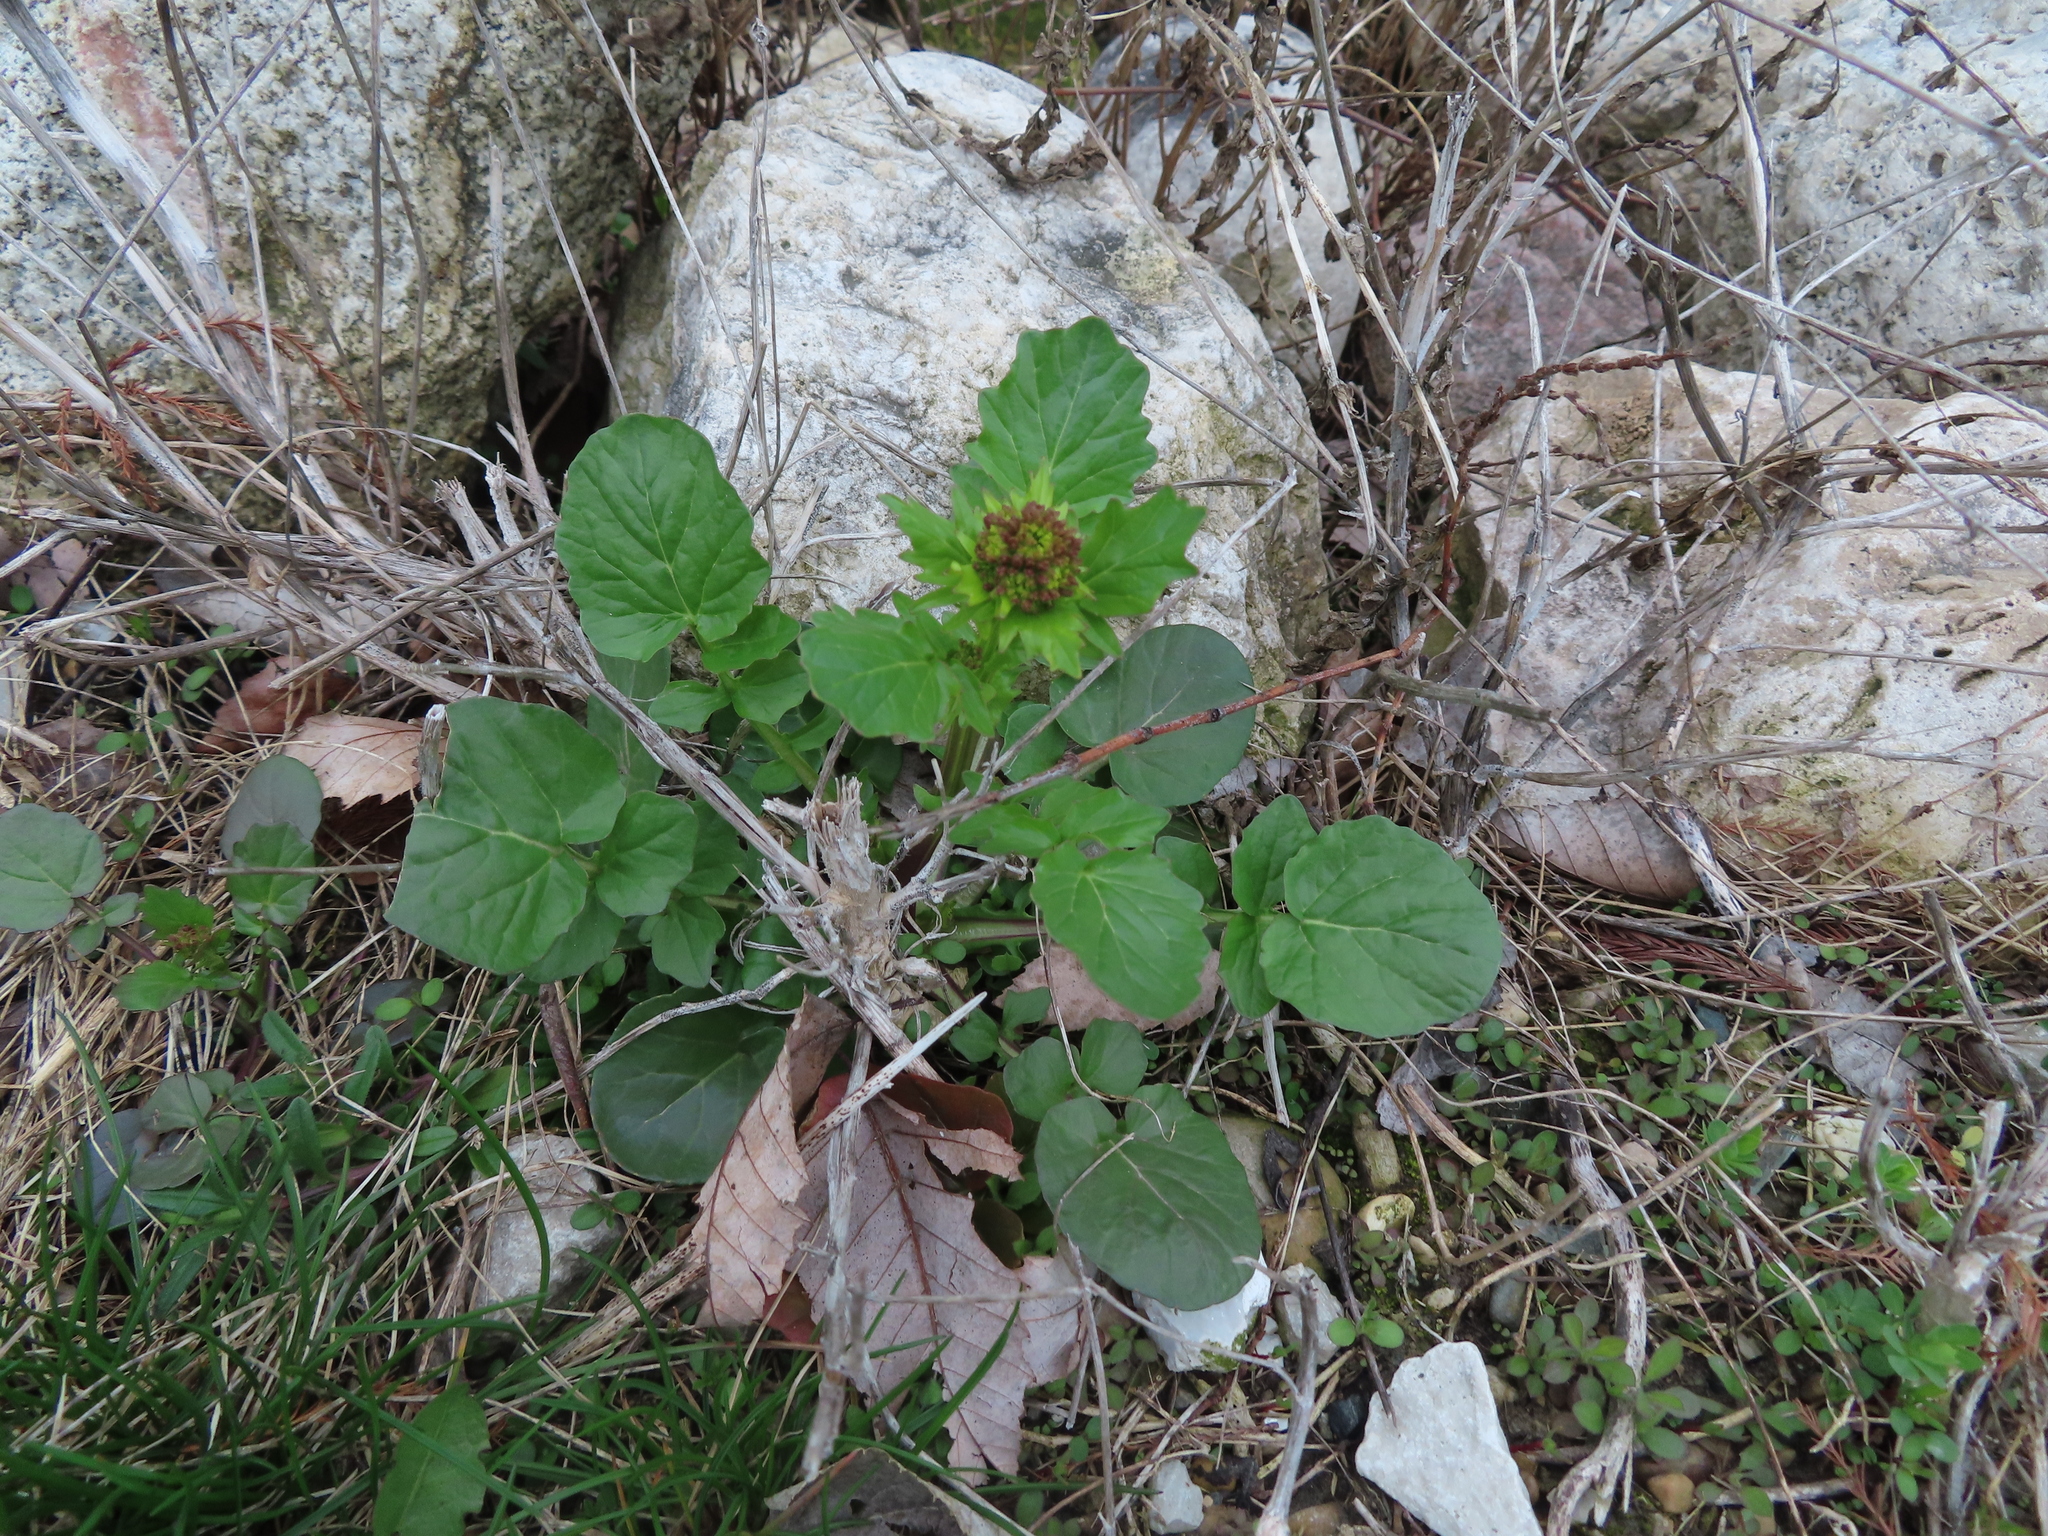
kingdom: Plantae
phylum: Tracheophyta
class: Magnoliopsida
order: Brassicales
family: Brassicaceae
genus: Barbarea
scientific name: Barbarea vulgaris
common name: Cressy-greens
